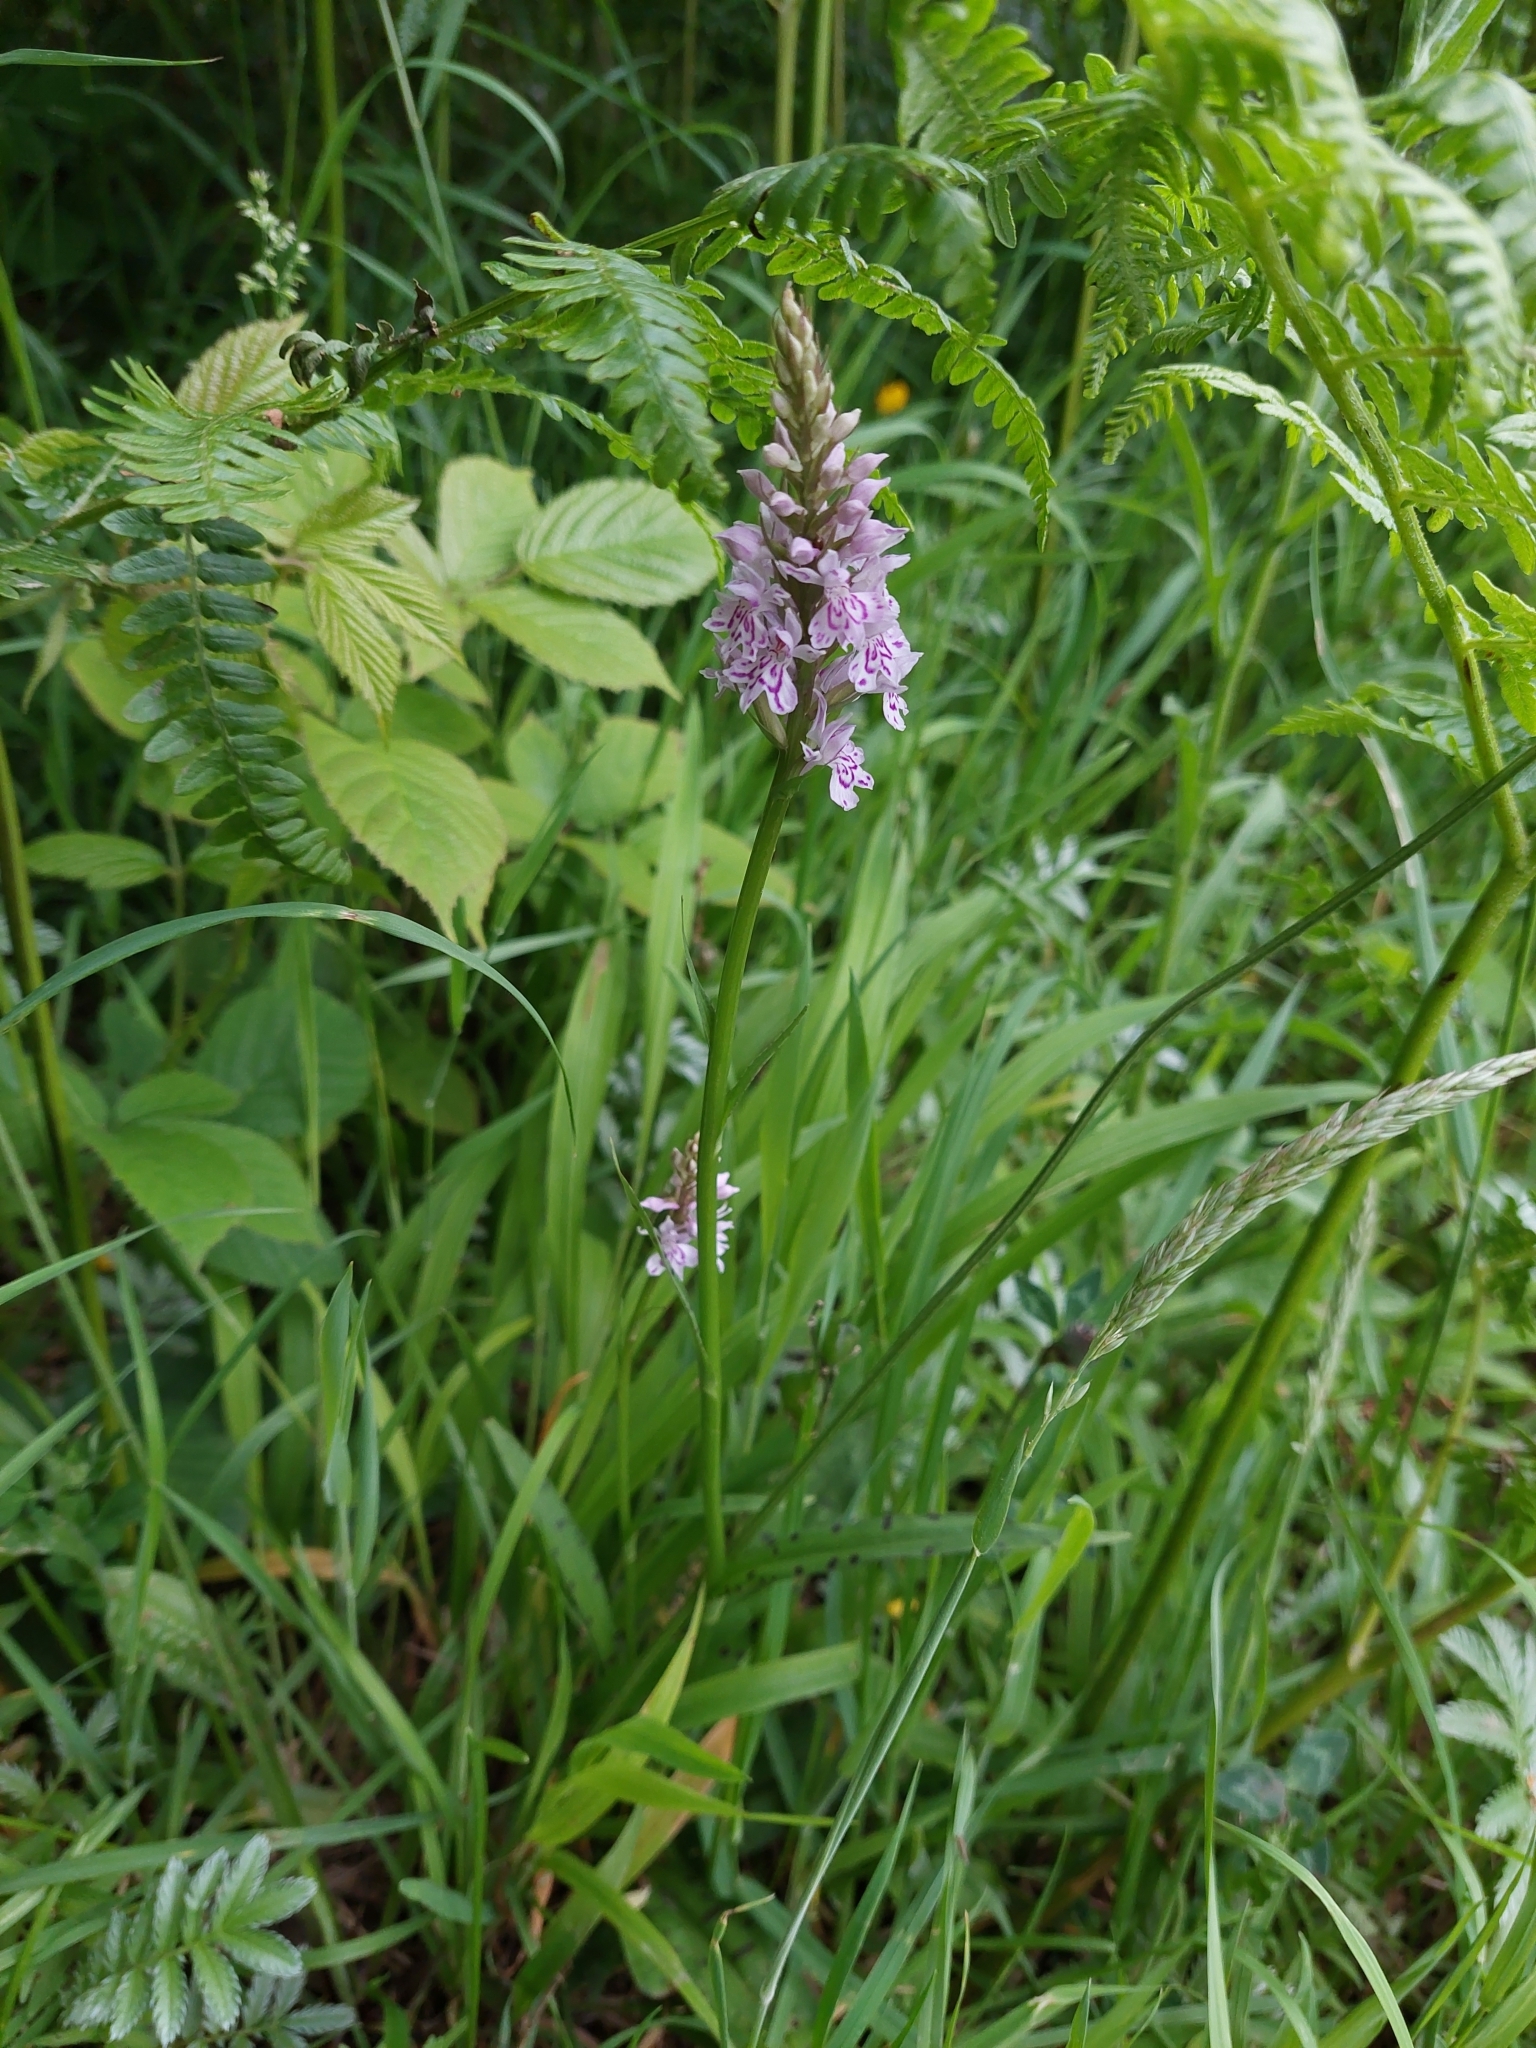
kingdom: Plantae
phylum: Tracheophyta
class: Liliopsida
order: Asparagales
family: Orchidaceae
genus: Dactylorhiza
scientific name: Dactylorhiza maculata
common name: Heath spotted-orchid
